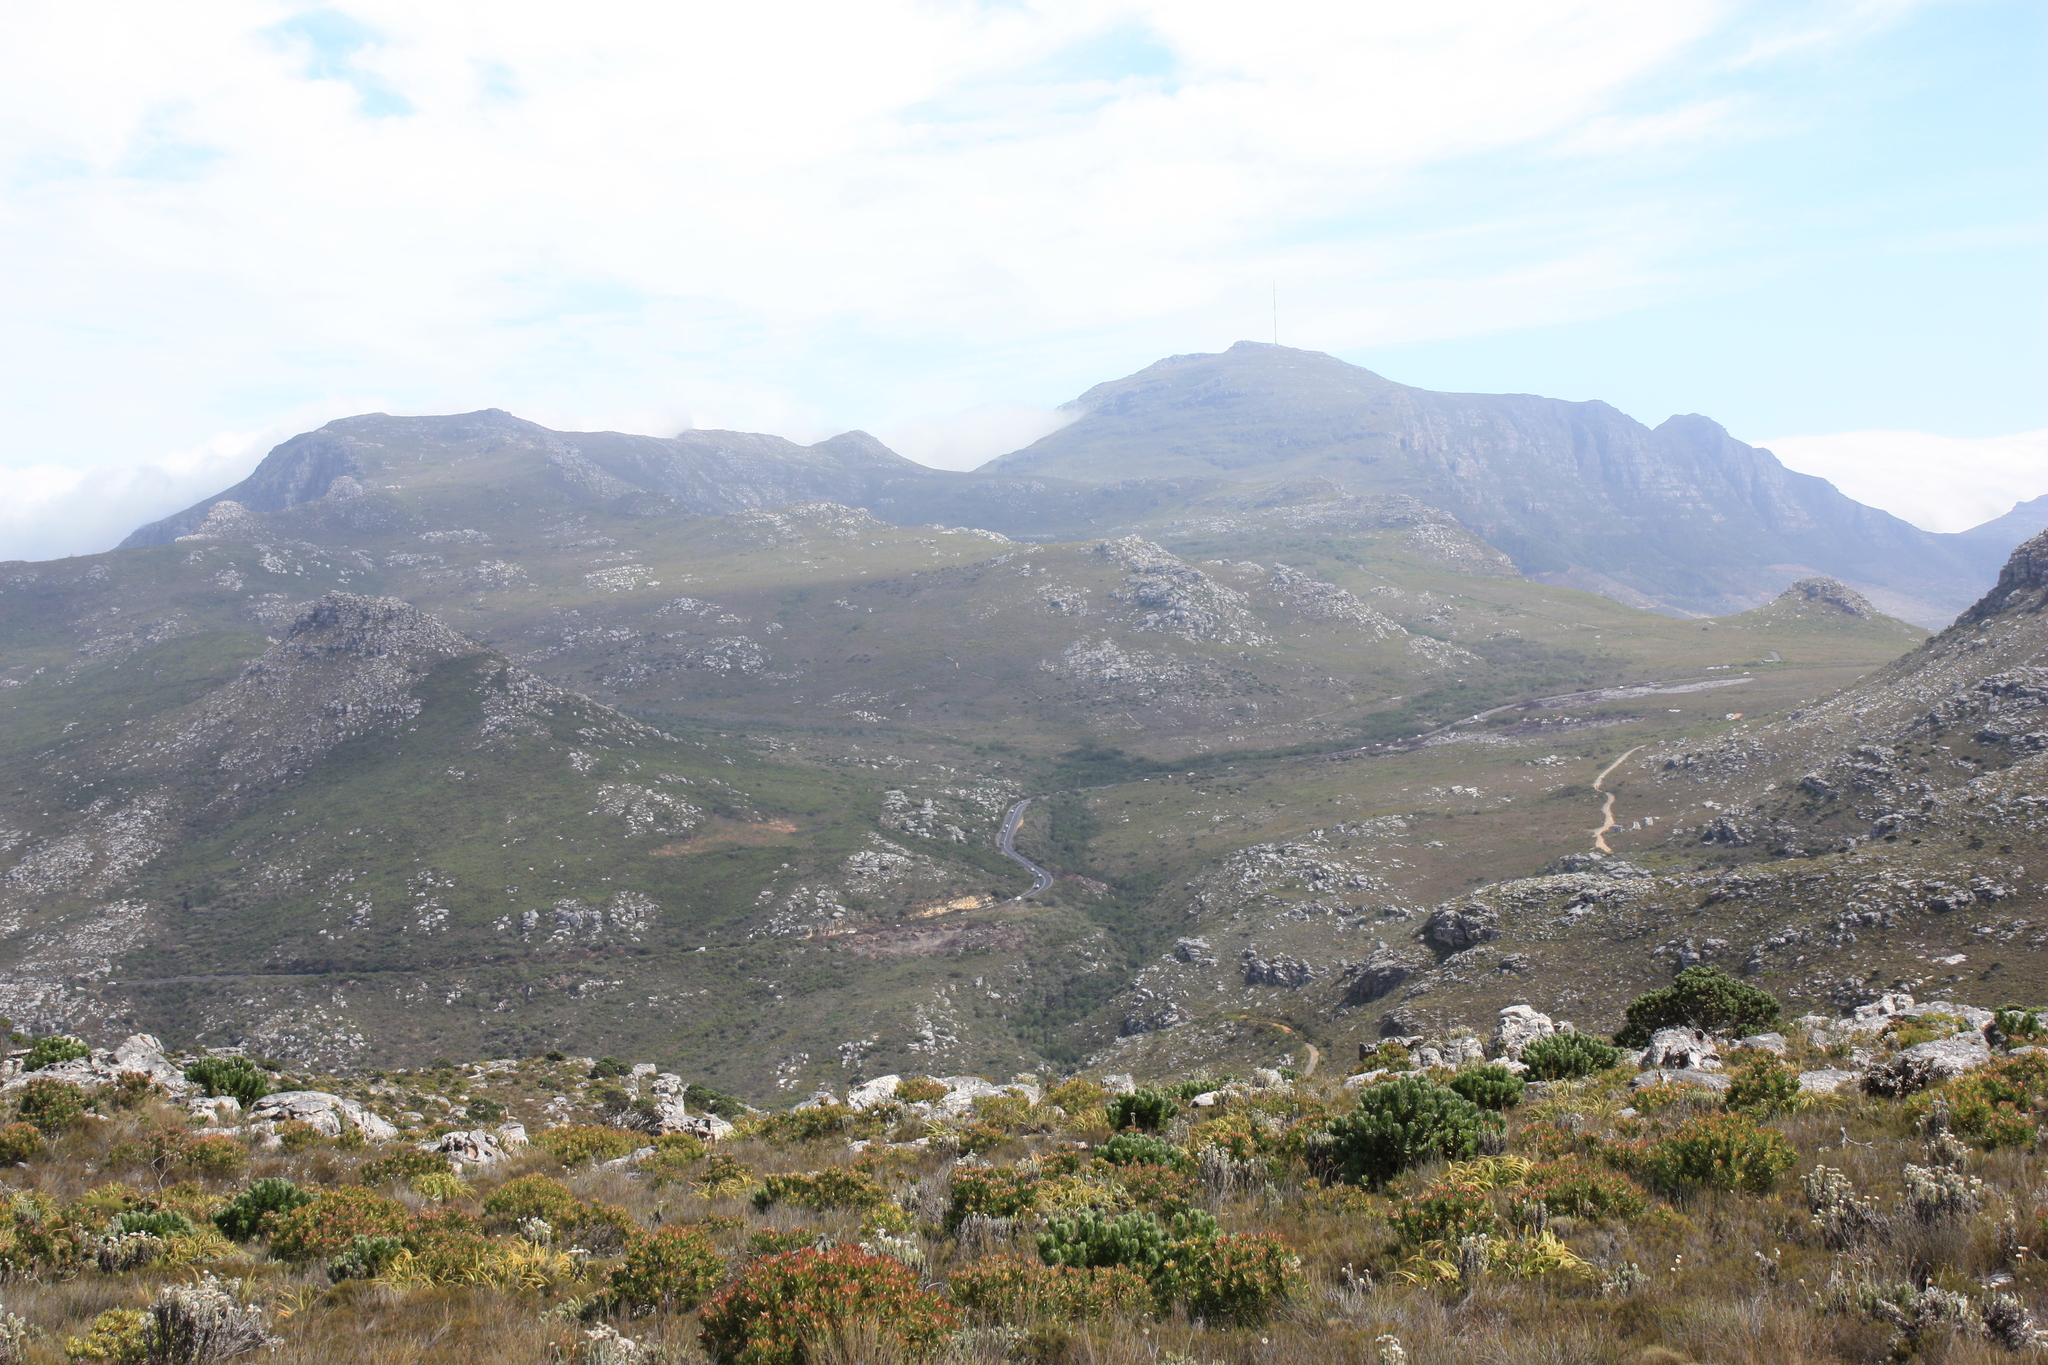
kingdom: Plantae
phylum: Tracheophyta
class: Magnoliopsida
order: Proteales
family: Proteaceae
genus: Leucospermum
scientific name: Leucospermum conocarpodendron
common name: Tree pincushion
